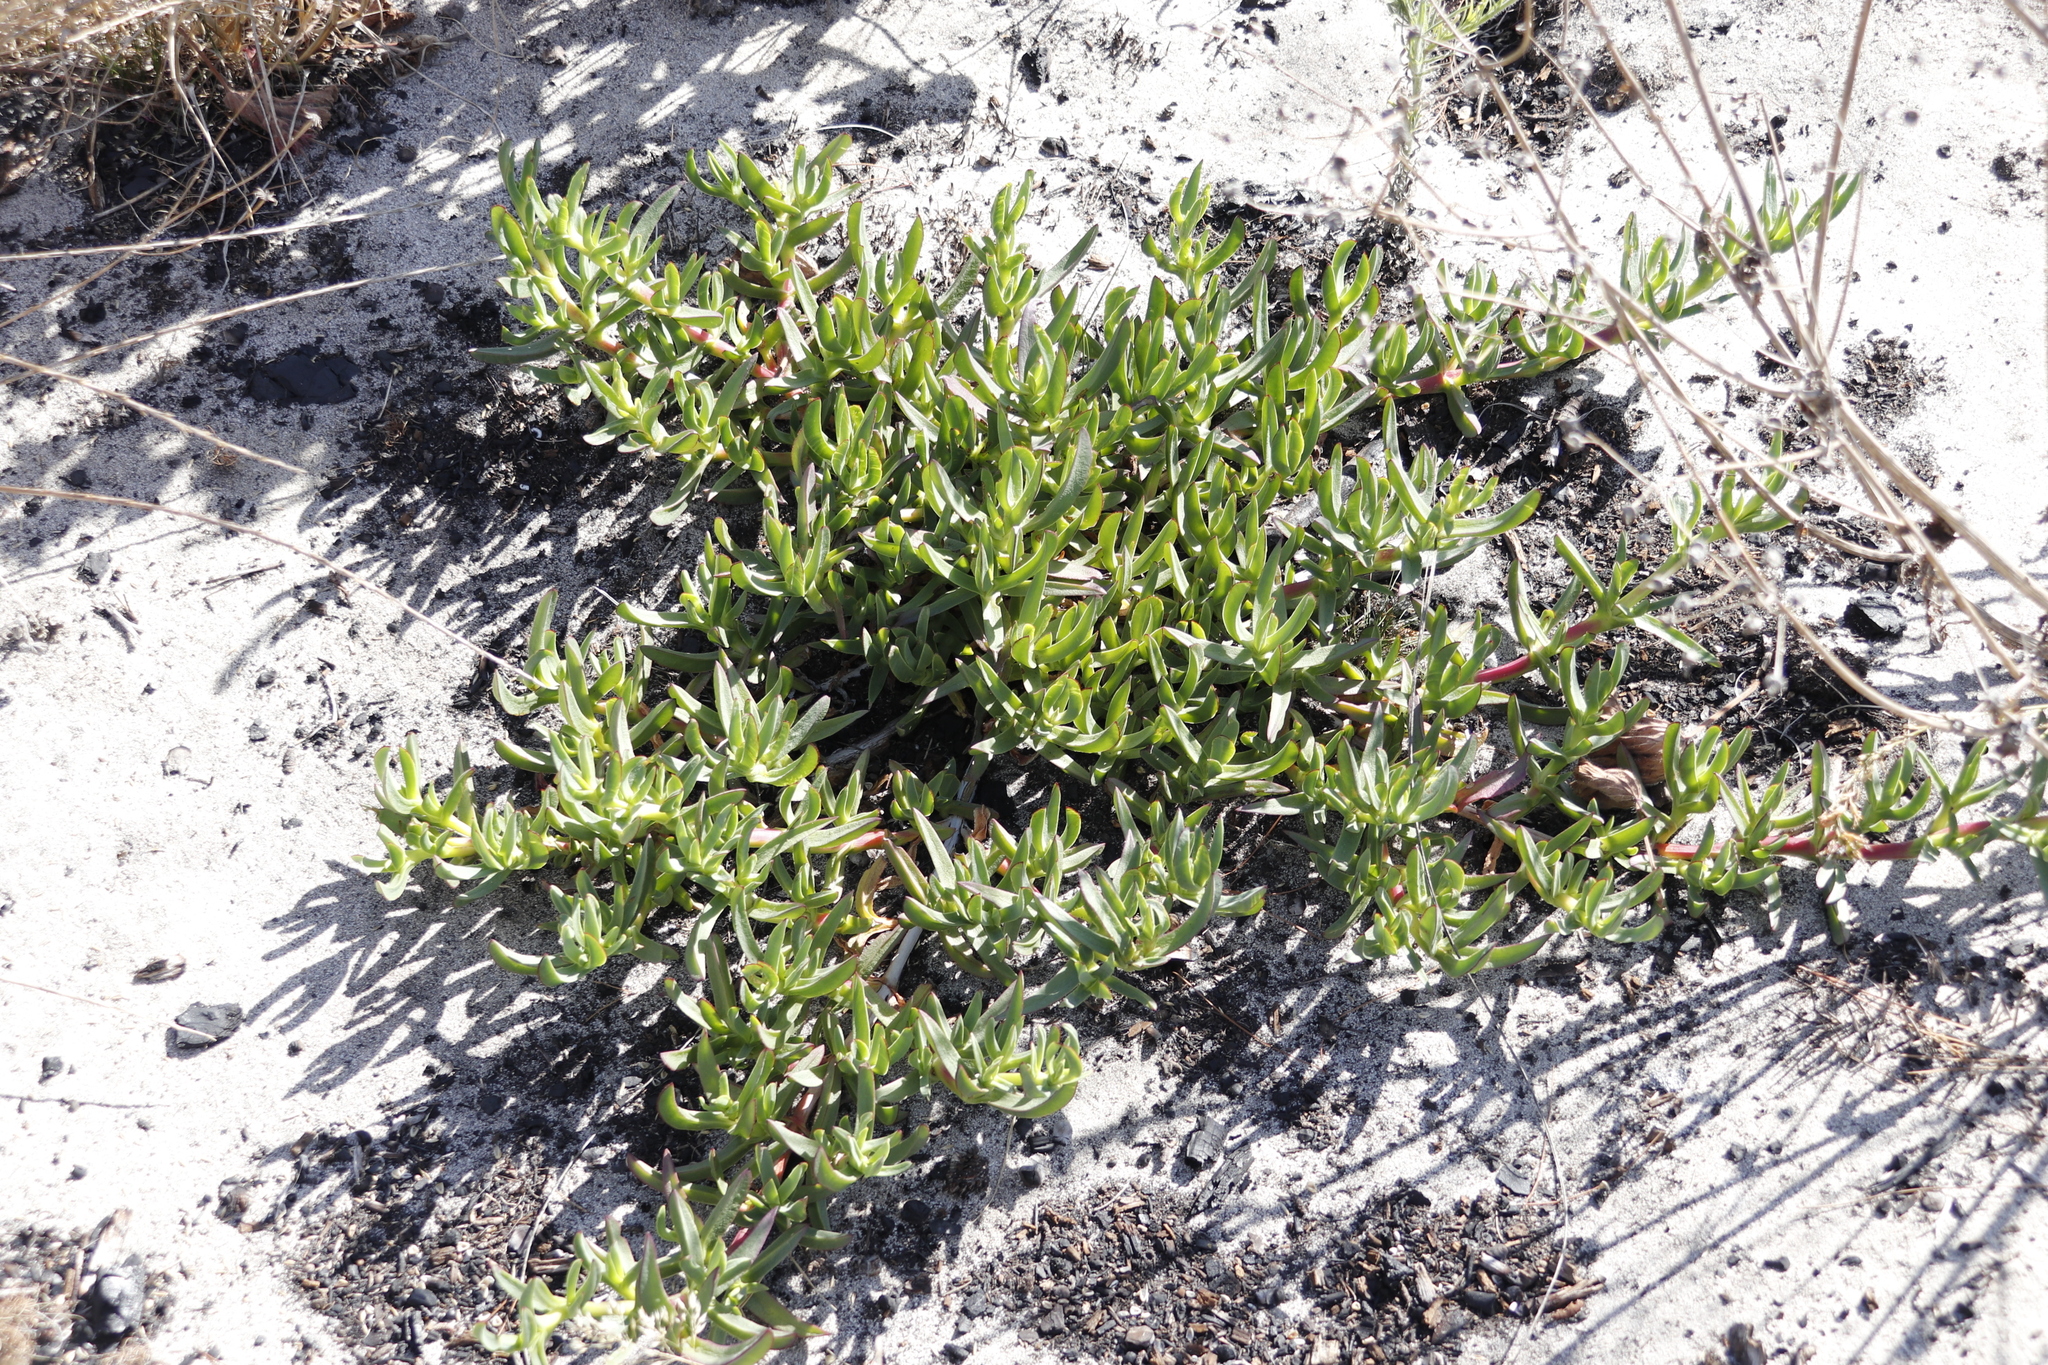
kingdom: Plantae
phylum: Tracheophyta
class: Magnoliopsida
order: Caryophyllales
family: Aizoaceae
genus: Carpobrotus
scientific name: Carpobrotus edulis
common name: Hottentot-fig
